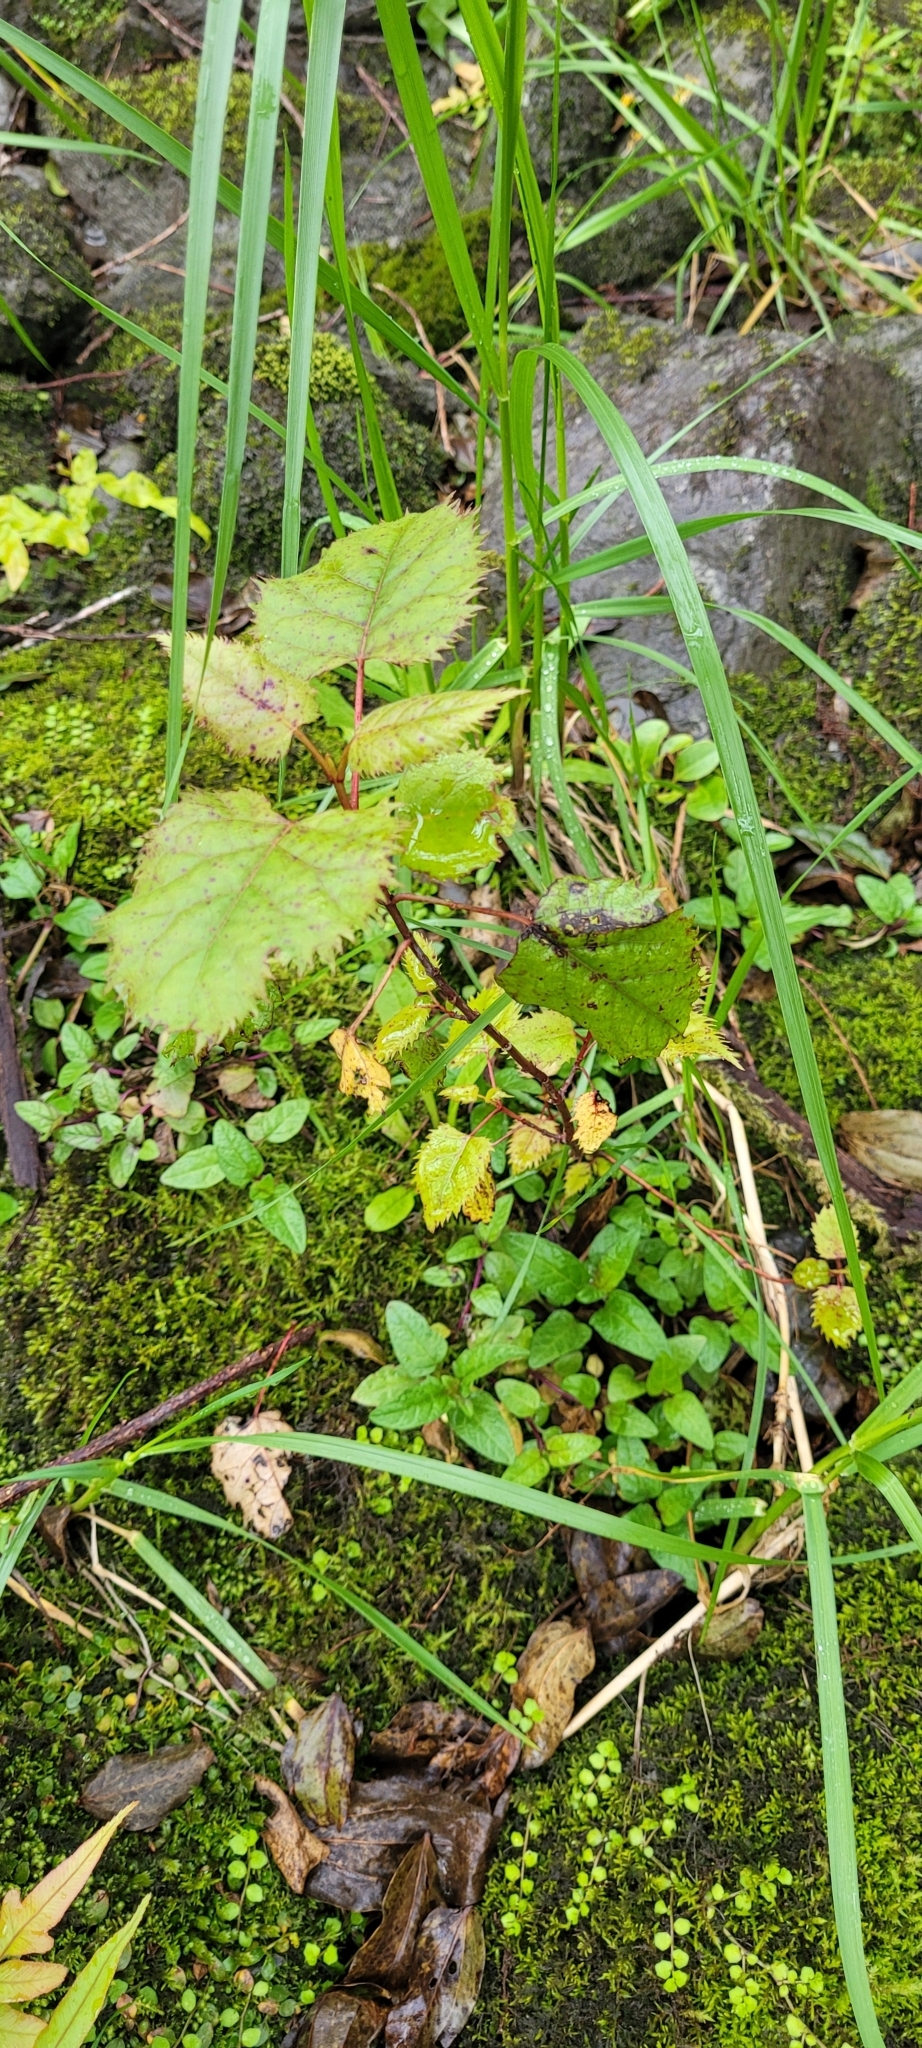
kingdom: Plantae
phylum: Tracheophyta
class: Magnoliopsida
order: Oxalidales
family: Elaeocarpaceae
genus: Aristotelia
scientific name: Aristotelia serrata
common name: New zealand wineberry
